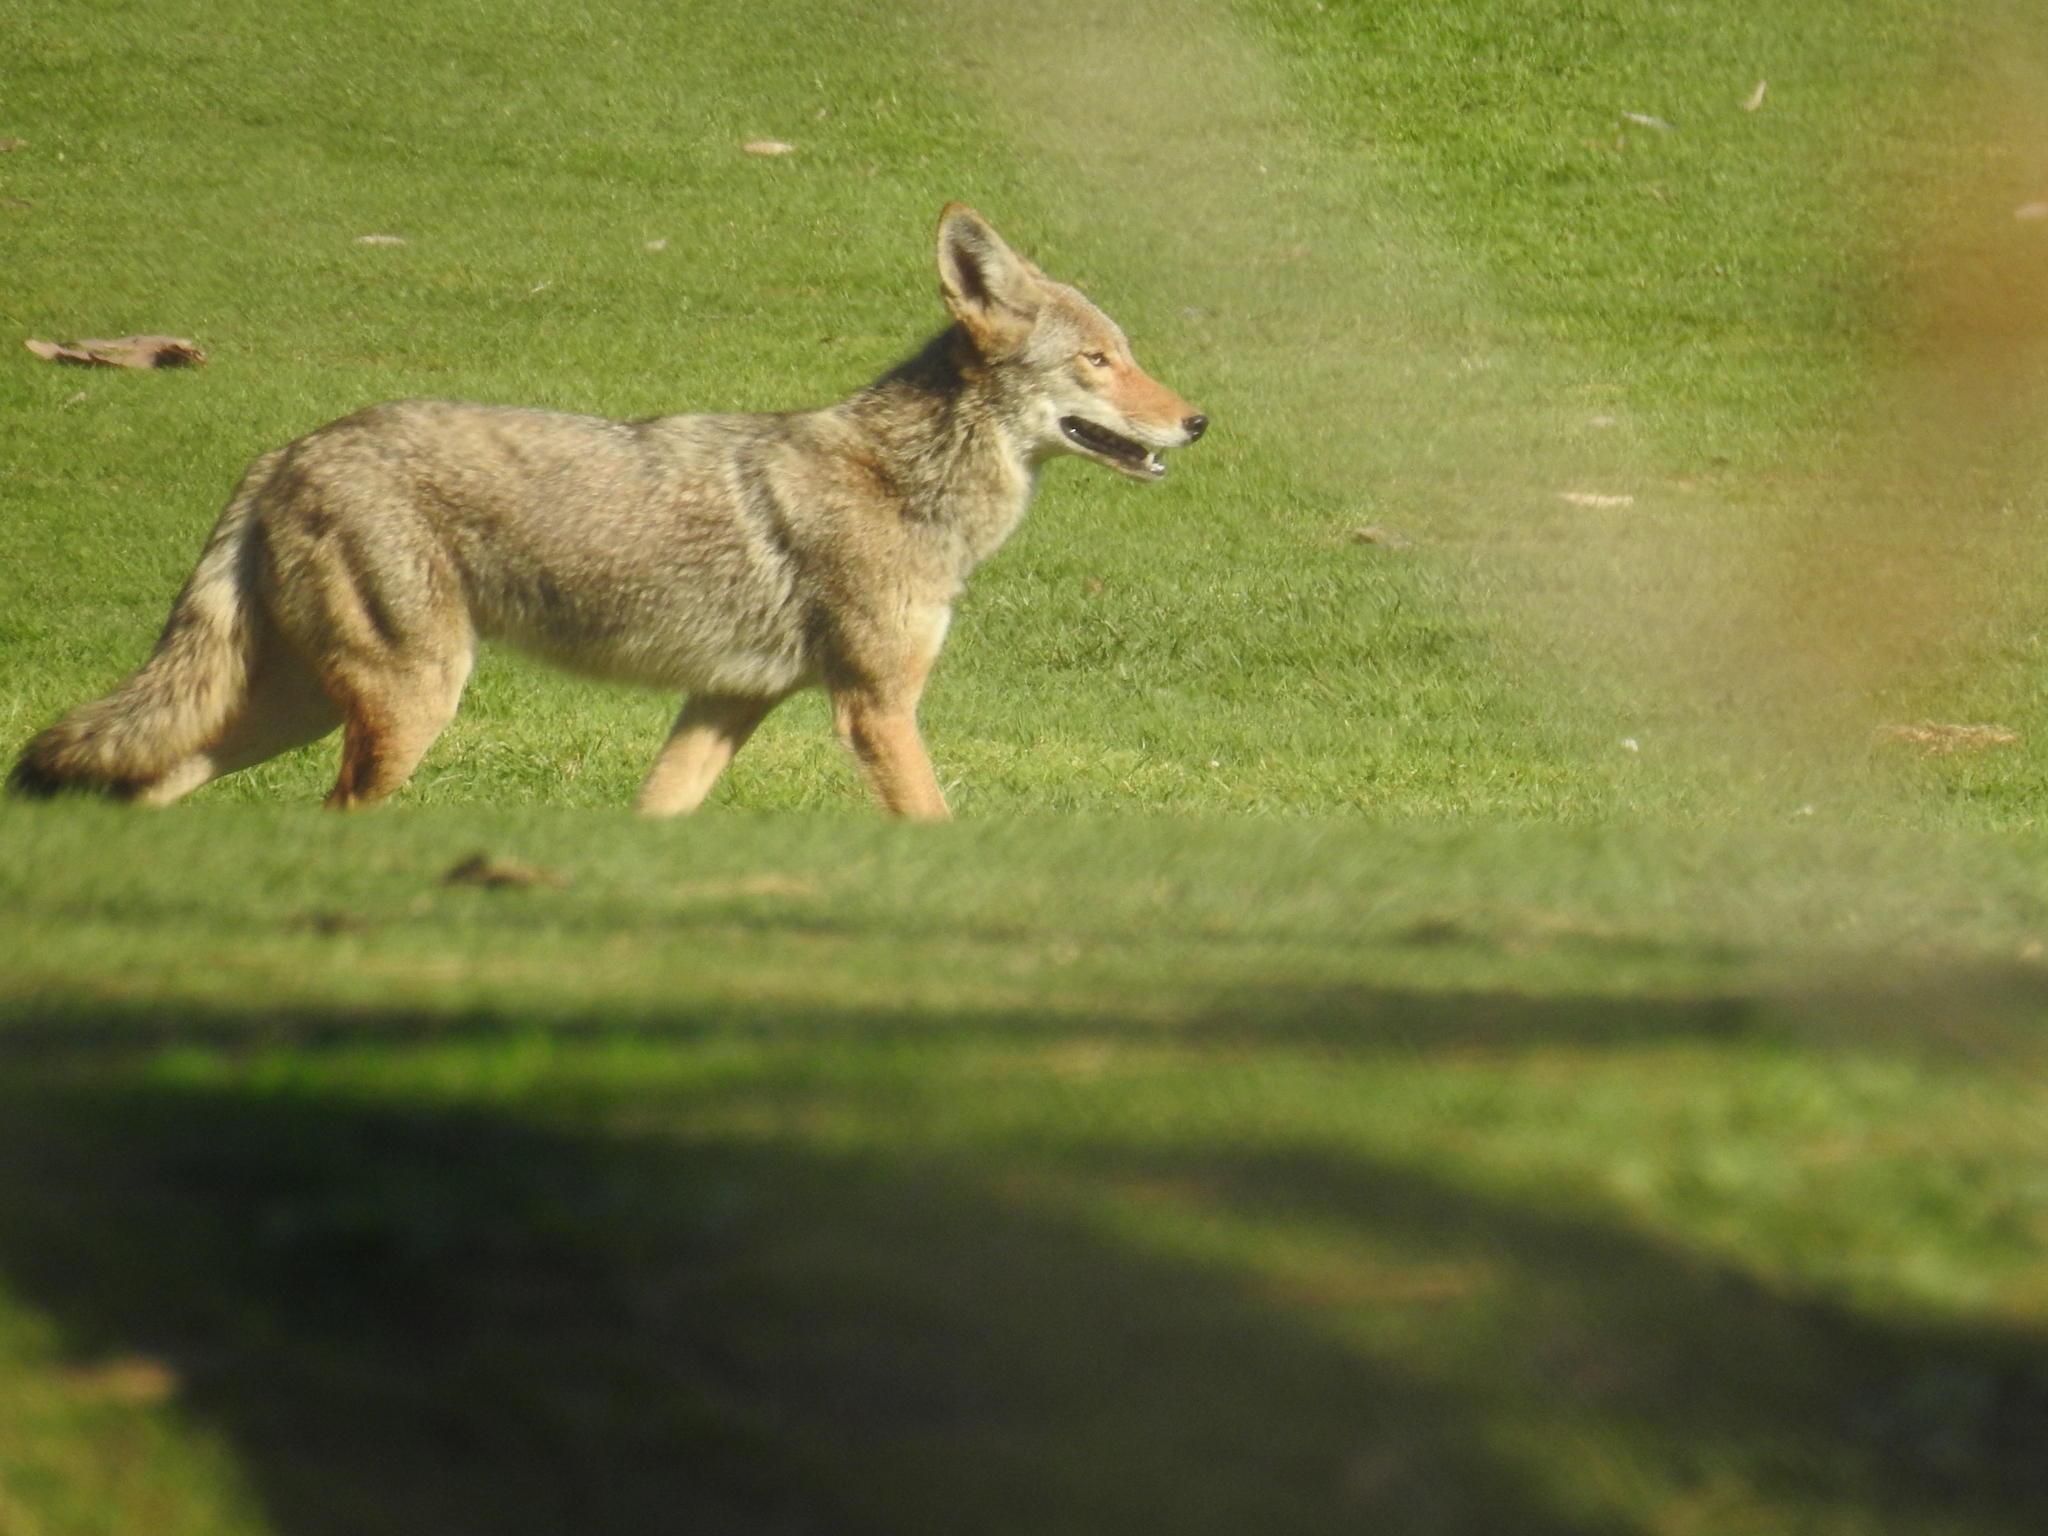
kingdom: Animalia
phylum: Chordata
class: Mammalia
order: Carnivora
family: Canidae
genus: Canis
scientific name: Canis latrans
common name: Coyote
